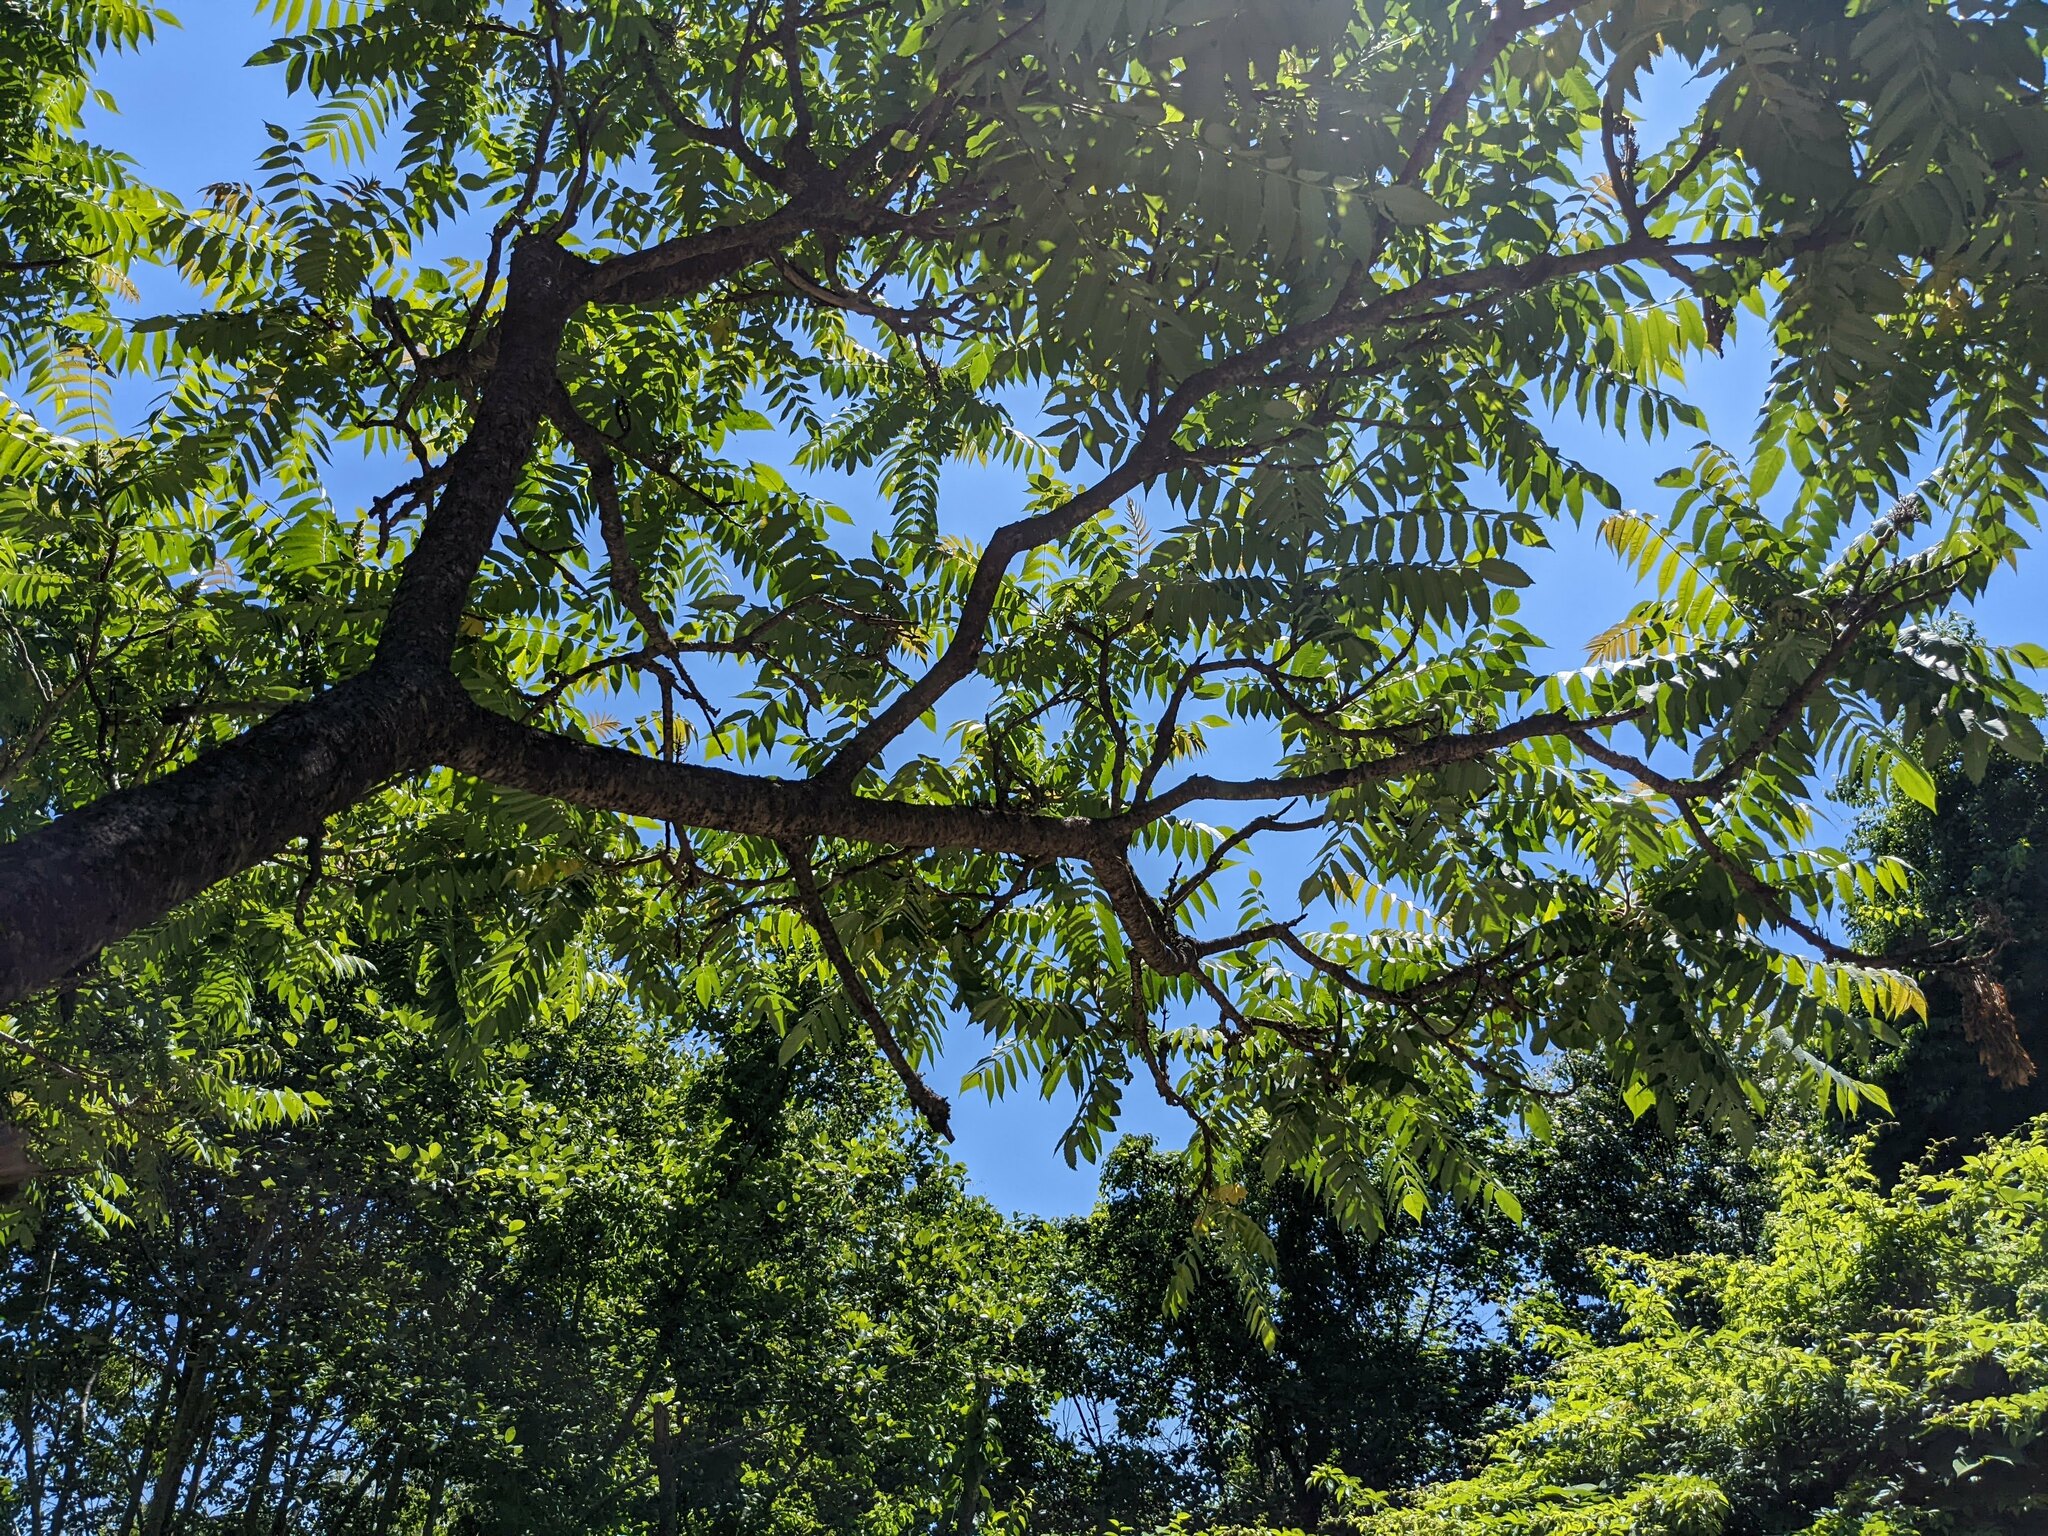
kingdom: Plantae
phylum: Tracheophyta
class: Magnoliopsida
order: Sapindales
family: Anacardiaceae
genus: Rhus
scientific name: Rhus typhina
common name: Staghorn sumac
